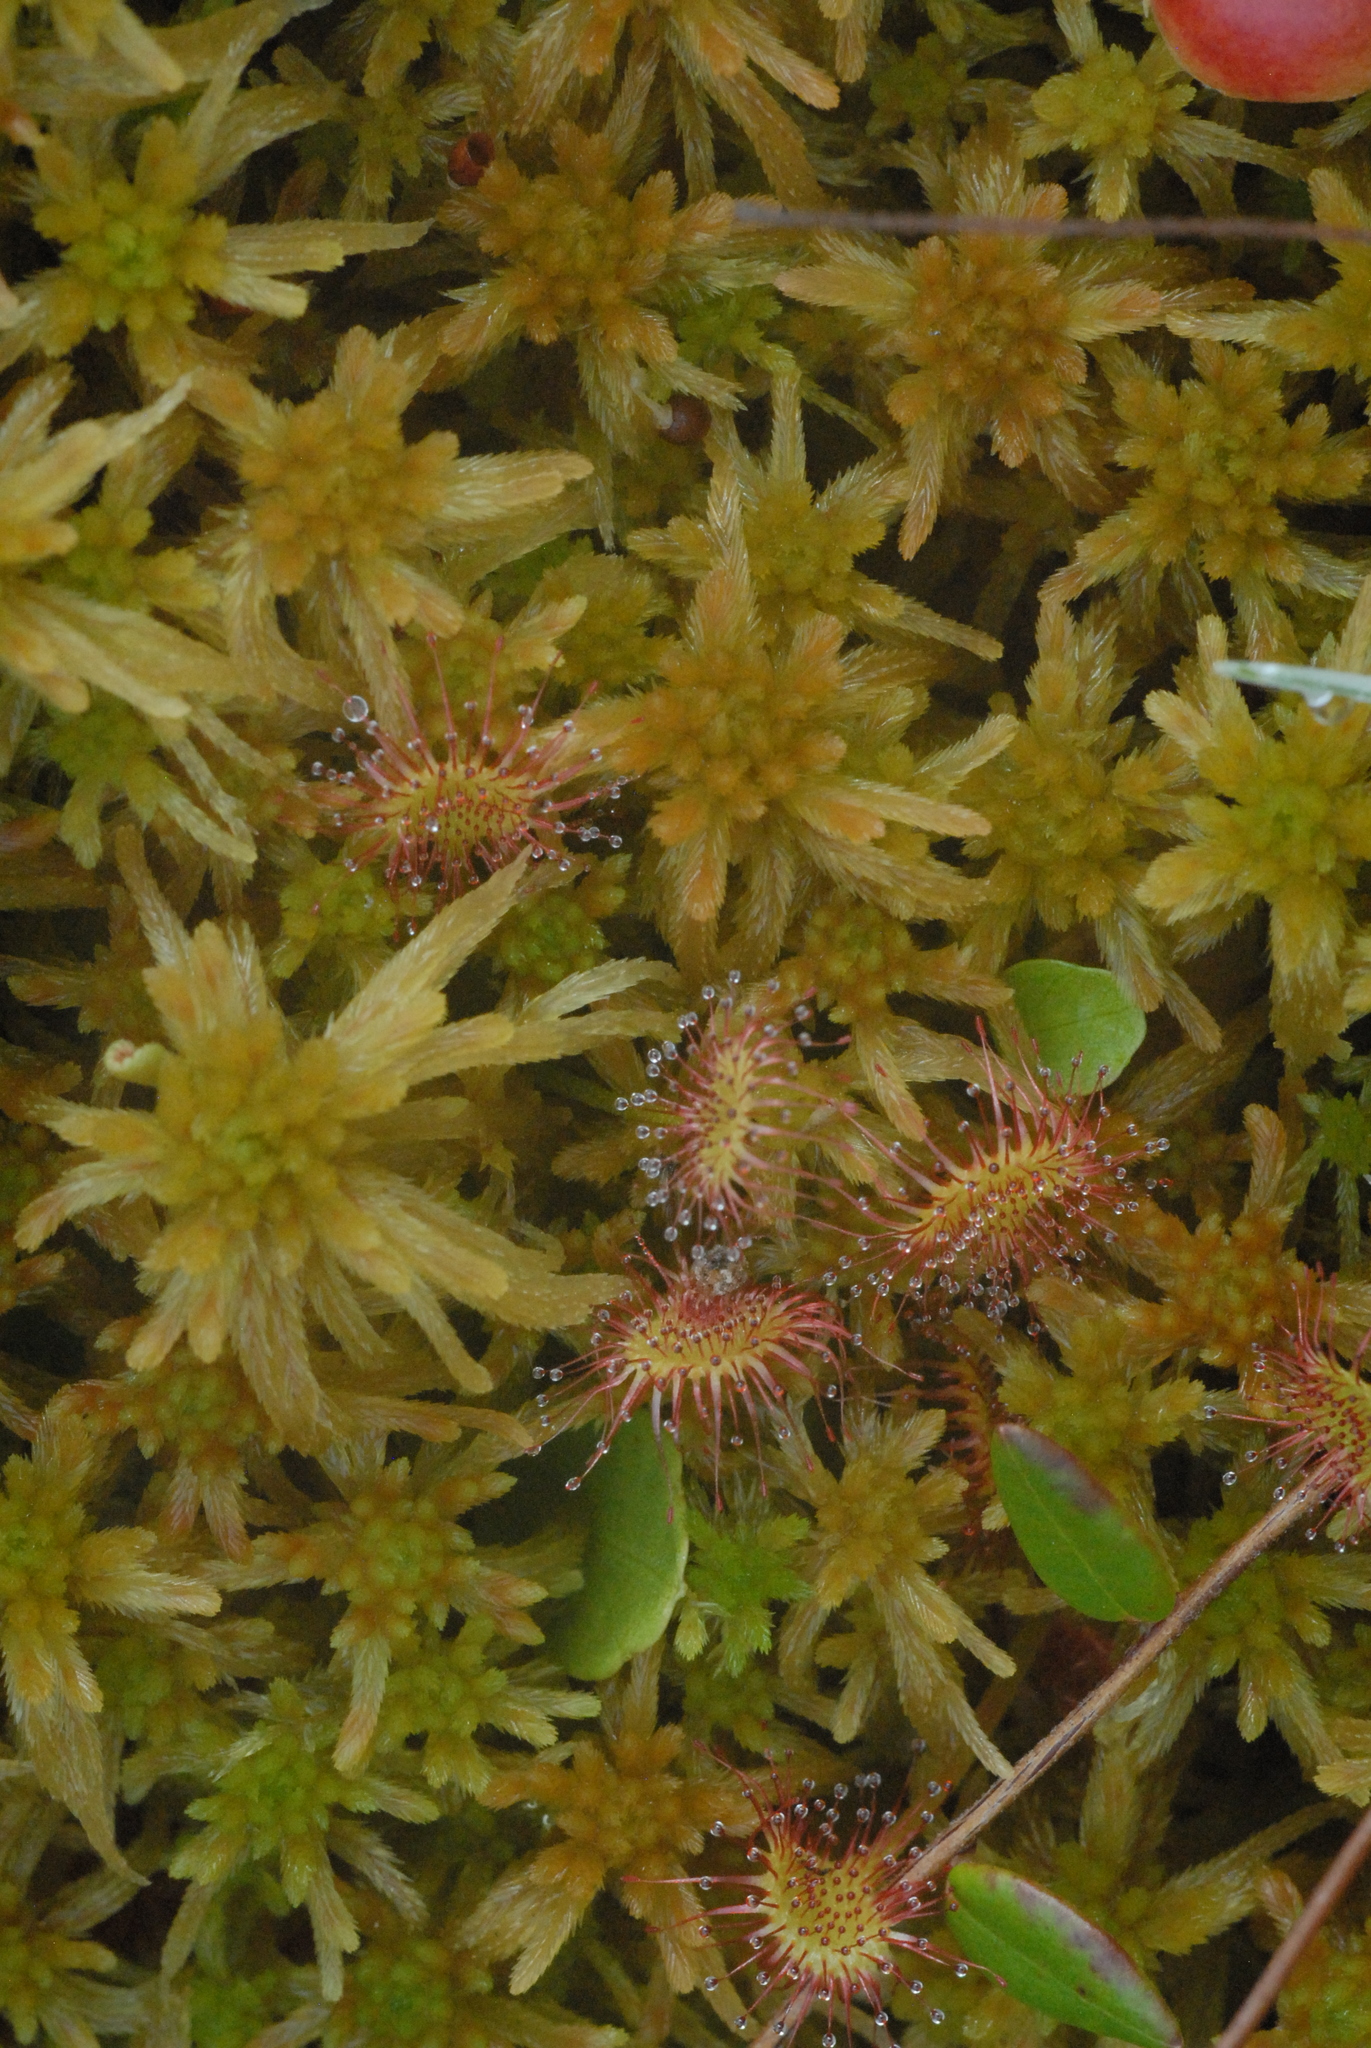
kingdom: Plantae
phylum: Tracheophyta
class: Magnoliopsida
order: Caryophyllales
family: Droseraceae
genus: Drosera
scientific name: Drosera rotundifolia
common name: Round-leaved sundew
